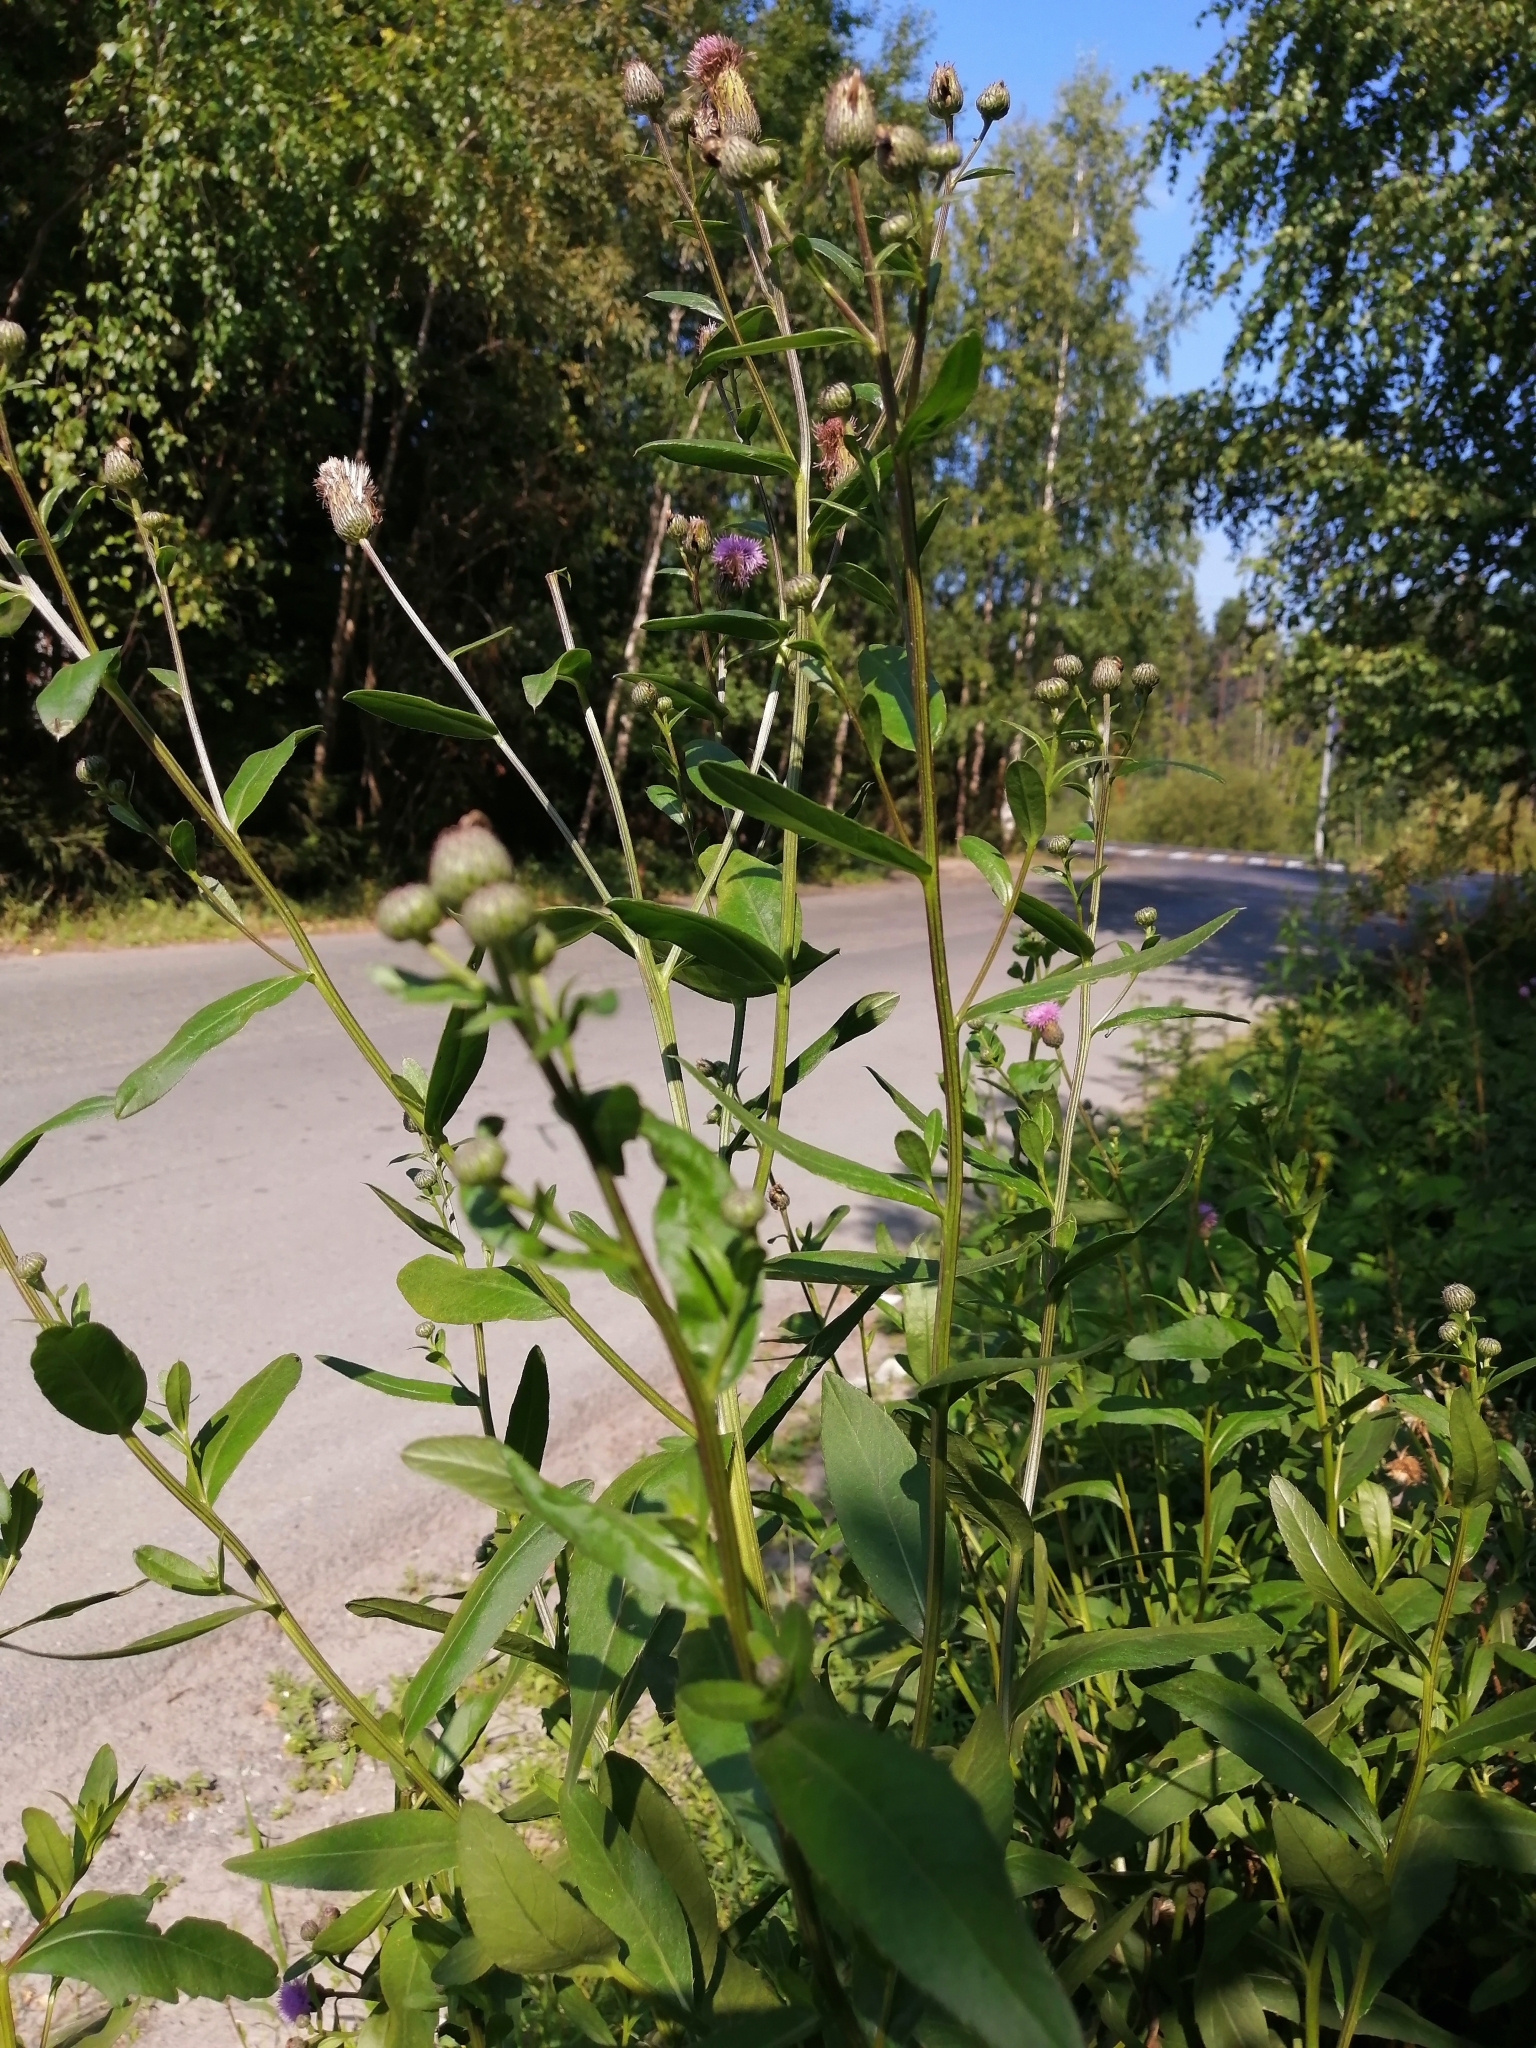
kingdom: Plantae
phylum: Tracheophyta
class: Magnoliopsida
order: Asterales
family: Asteraceae
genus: Cirsium
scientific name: Cirsium arvense
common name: Creeping thistle
